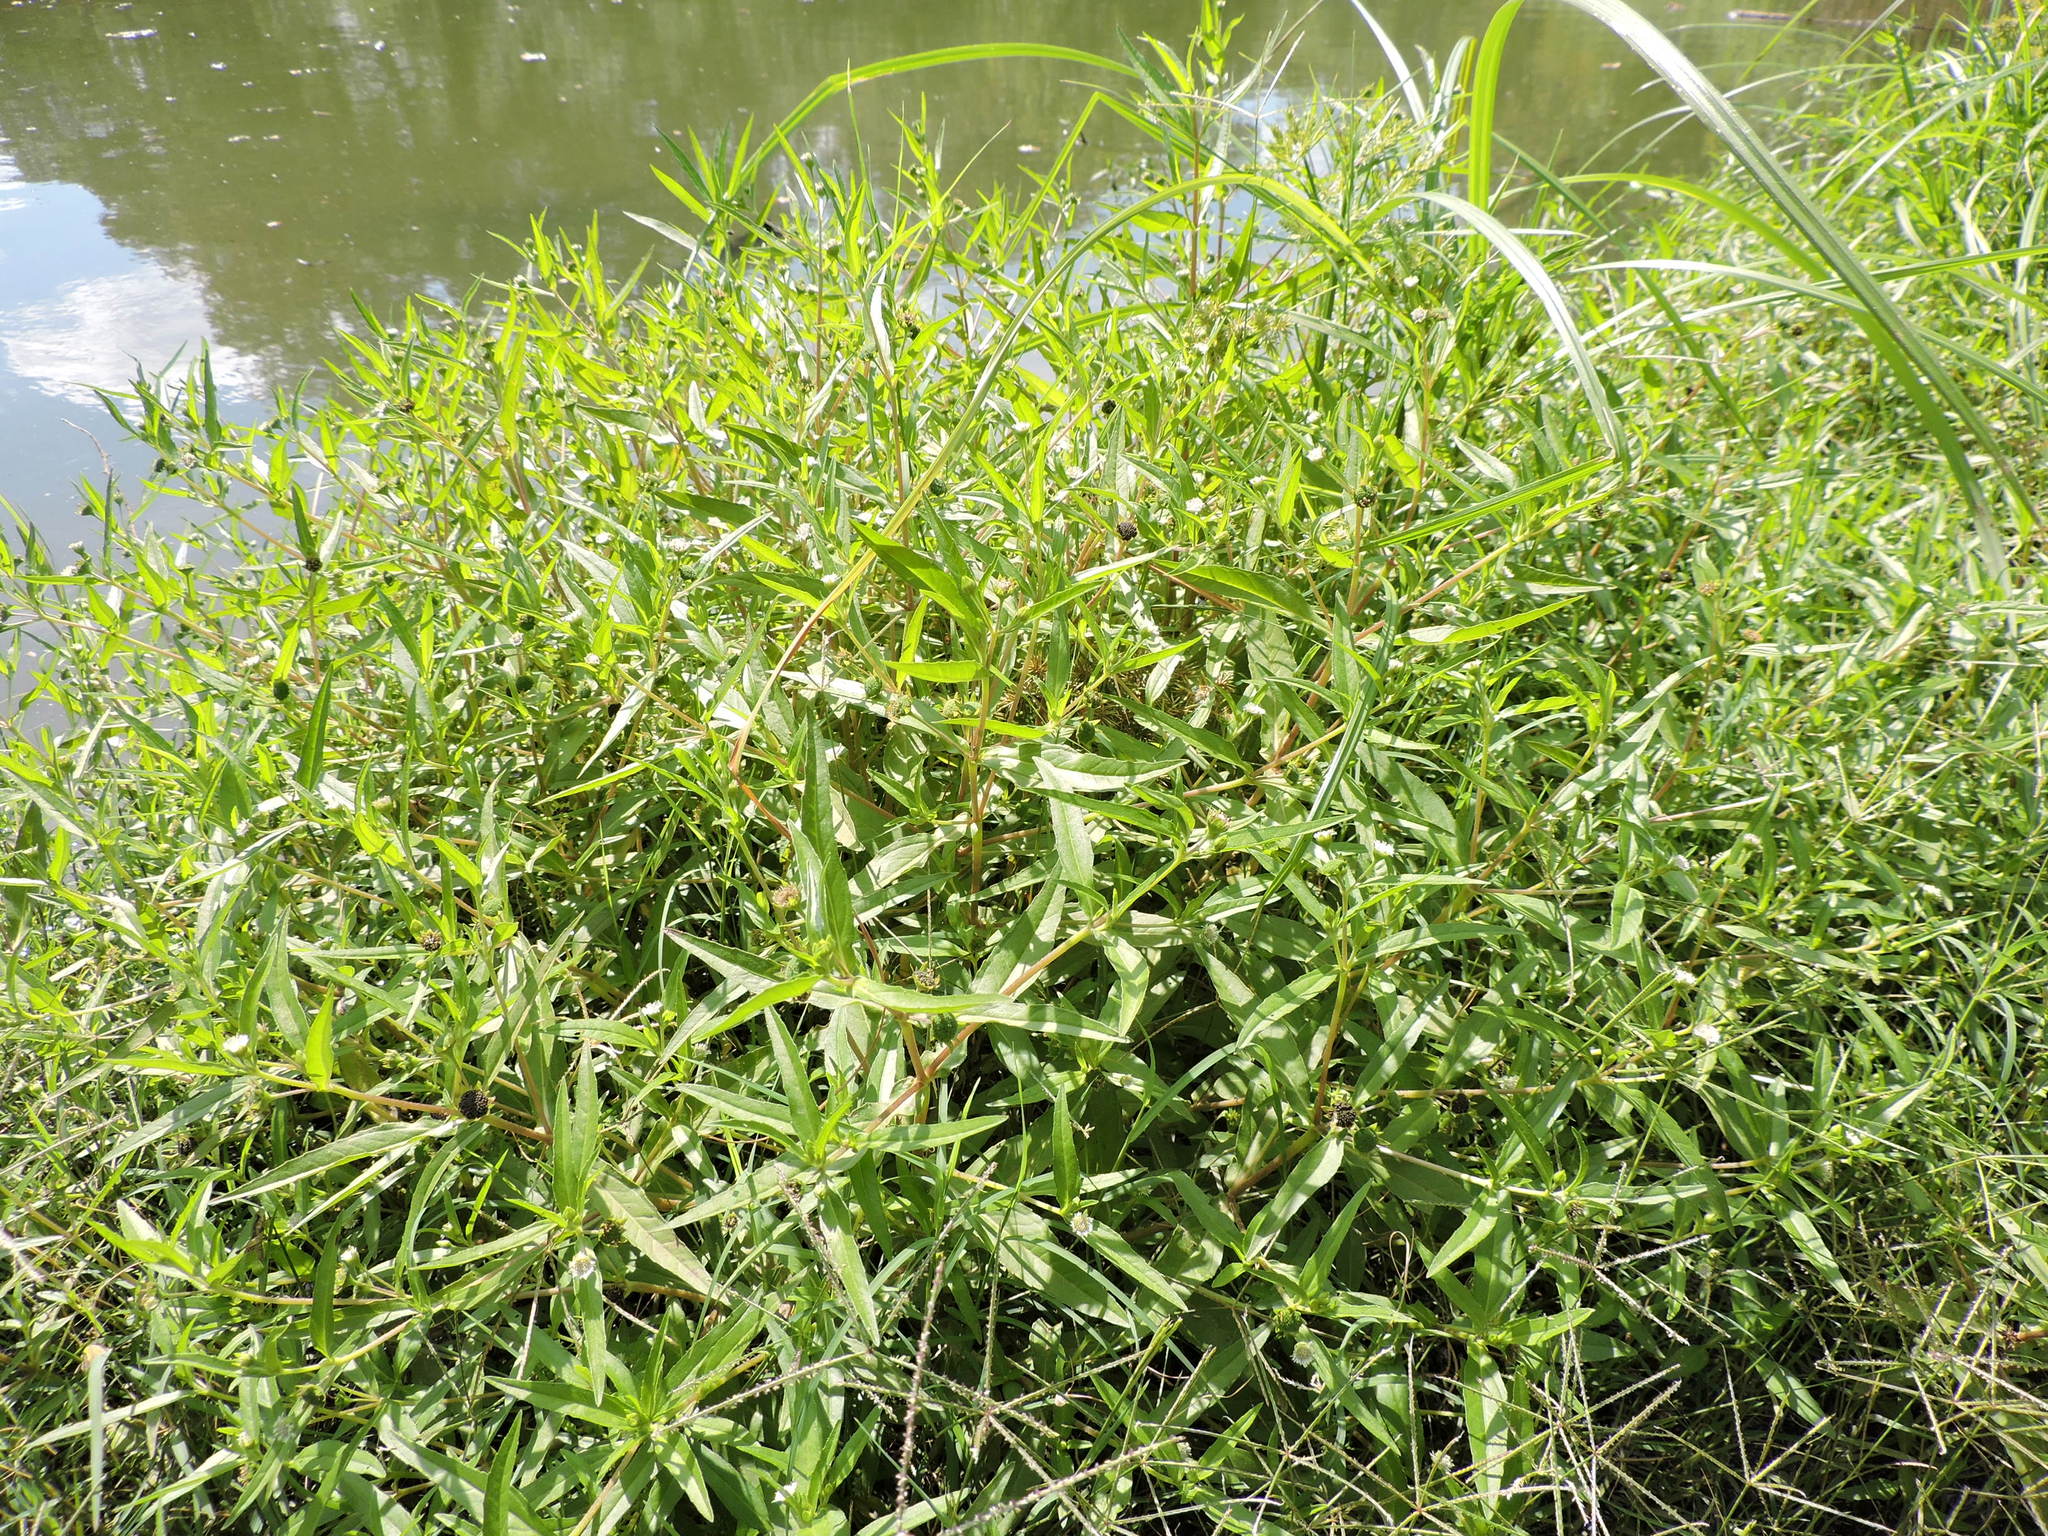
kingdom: Plantae
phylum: Tracheophyta
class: Magnoliopsida
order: Asterales
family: Asteraceae
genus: Eclipta
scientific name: Eclipta prostrata
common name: False daisy
